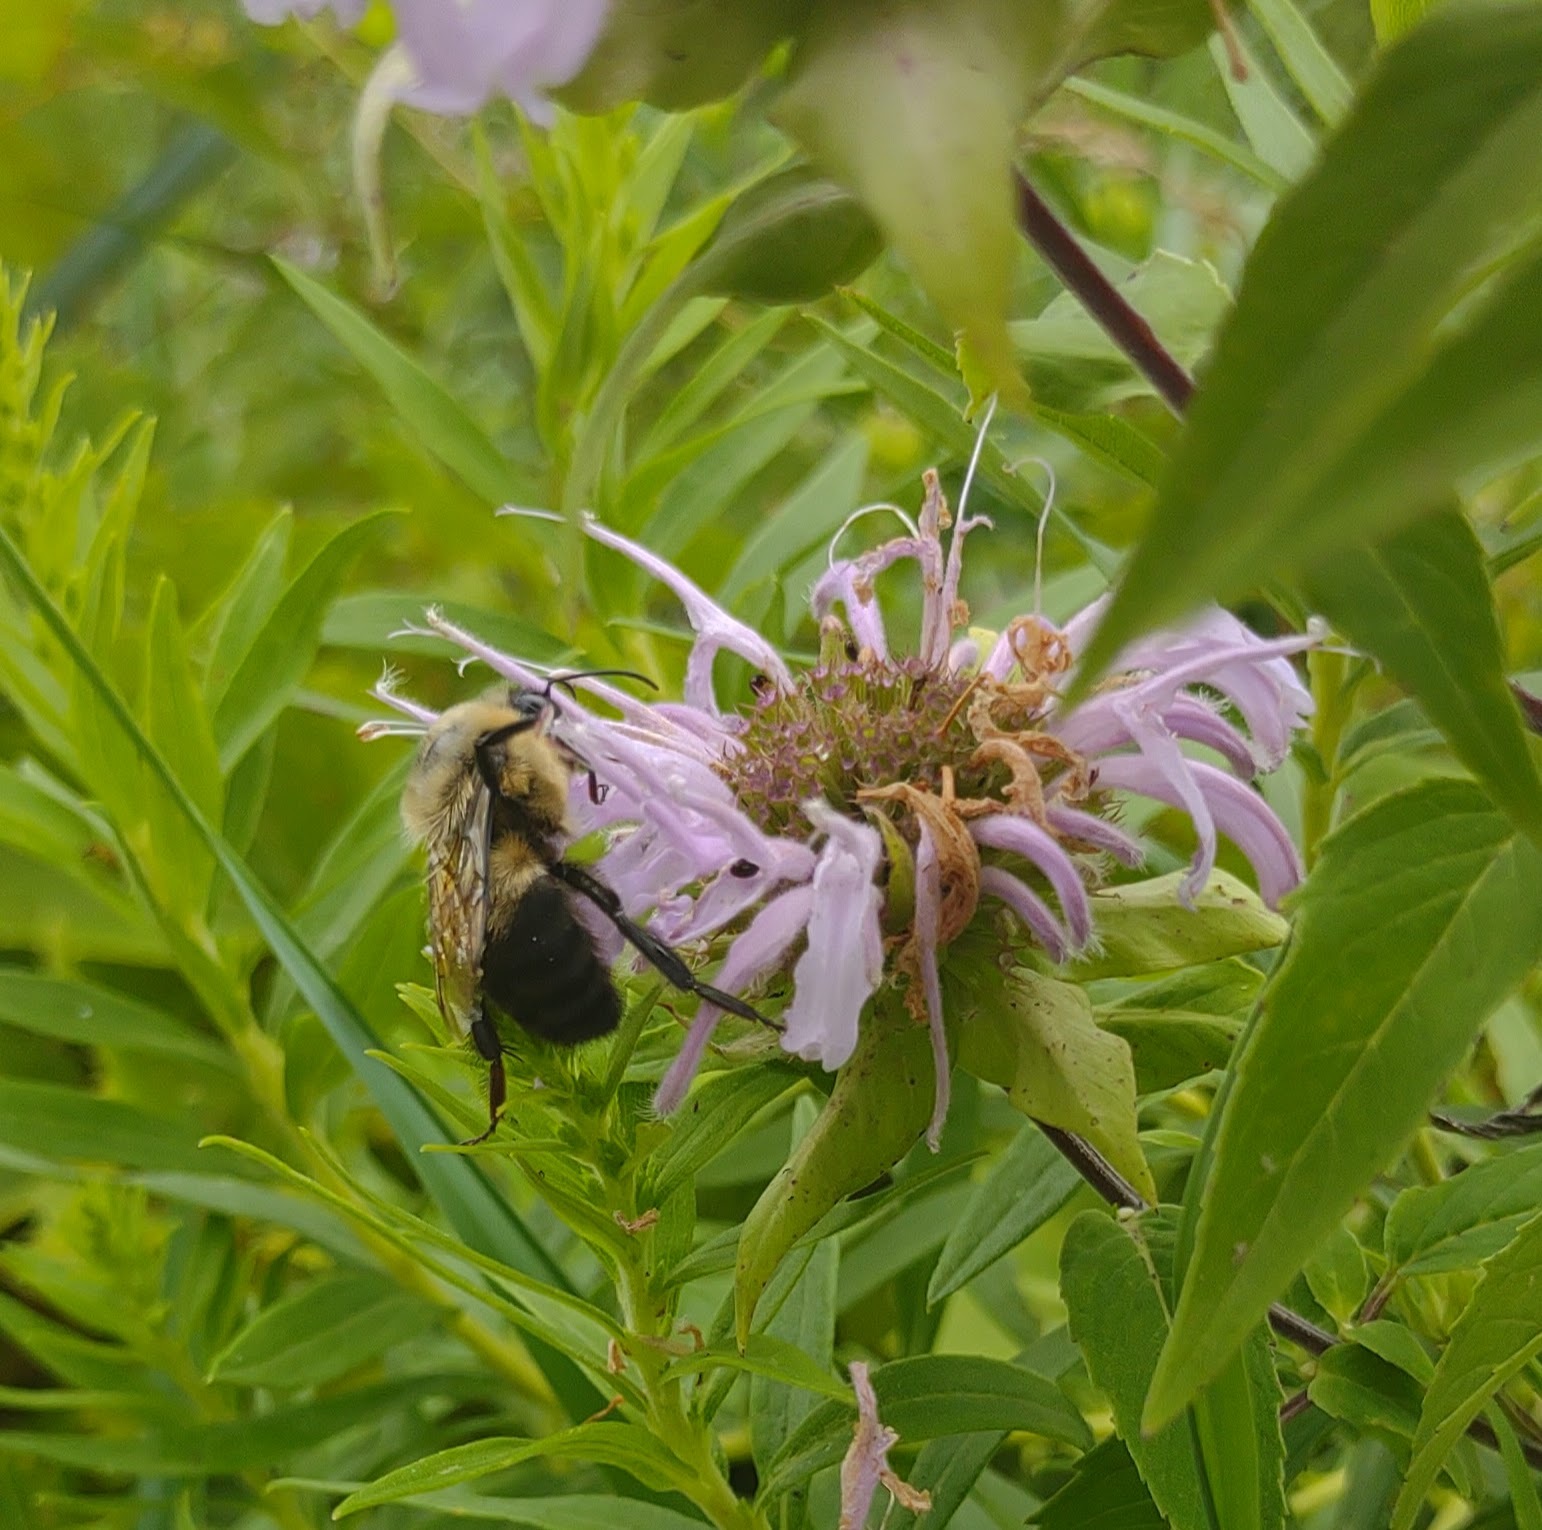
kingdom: Animalia
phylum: Arthropoda
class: Insecta
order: Hymenoptera
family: Apidae
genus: Bombus
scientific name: Bombus griseocollis
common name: Brown-belted bumble bee
